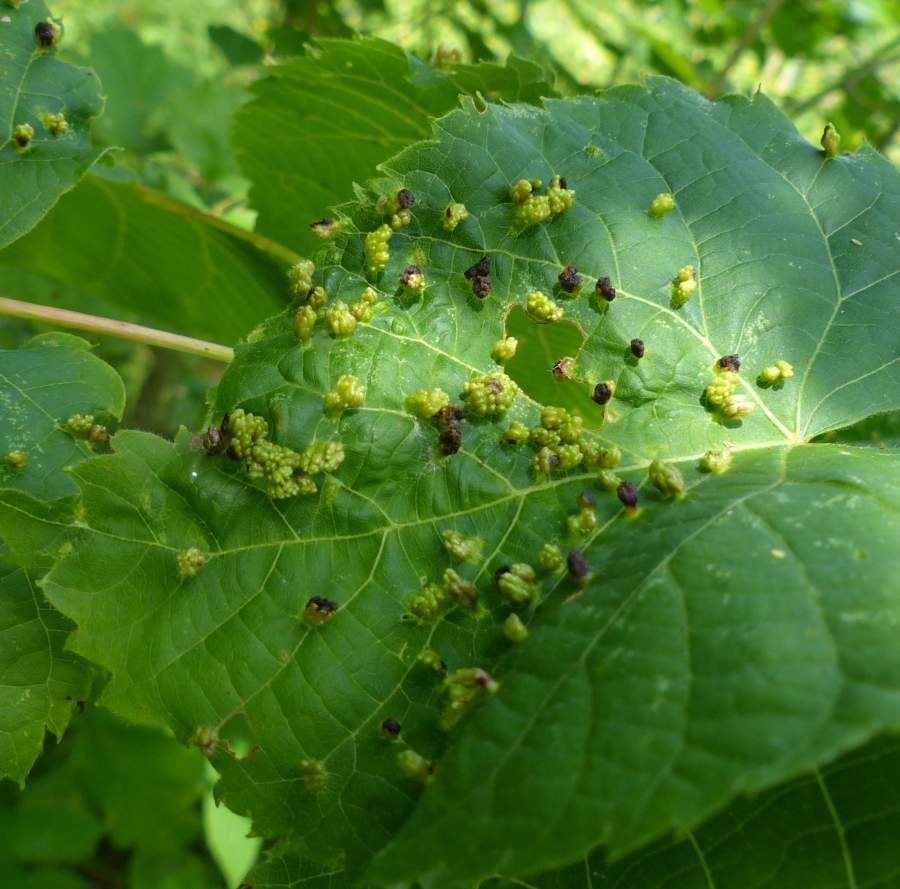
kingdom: Animalia
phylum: Arthropoda
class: Arachnida
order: Trombidiformes
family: Eriophyidae
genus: Eriophyes
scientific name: Eriophyes tiliae
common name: Red nail gall mite
